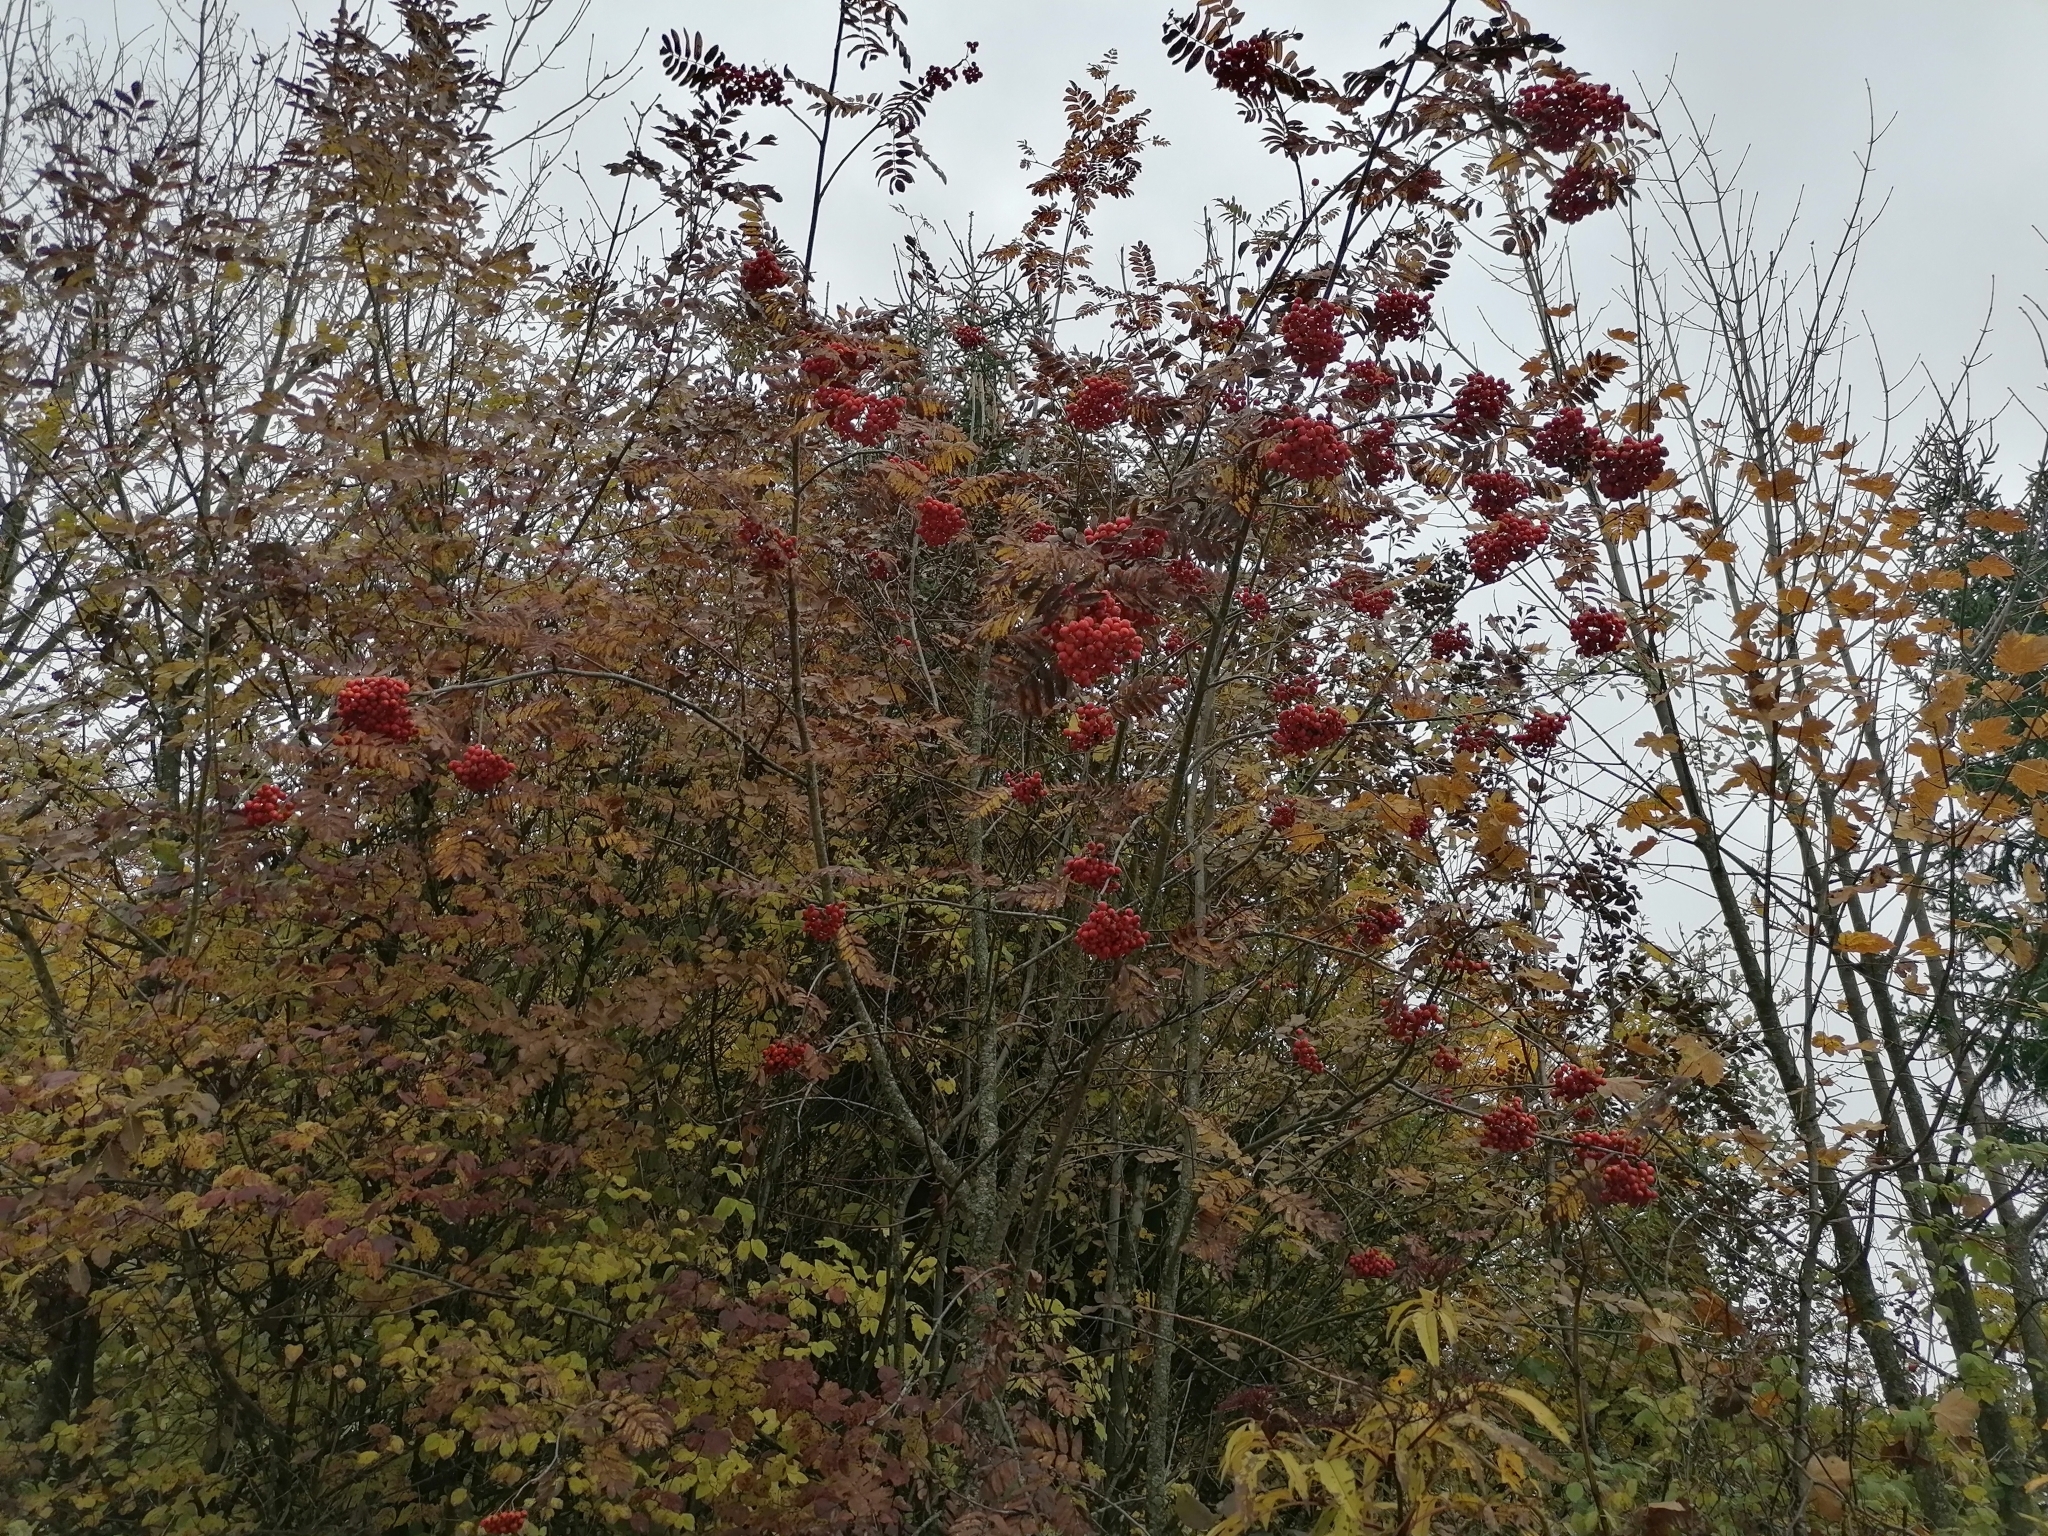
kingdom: Plantae
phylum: Tracheophyta
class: Magnoliopsida
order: Rosales
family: Rosaceae
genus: Sorbus
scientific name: Sorbus aucuparia
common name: Rowan
